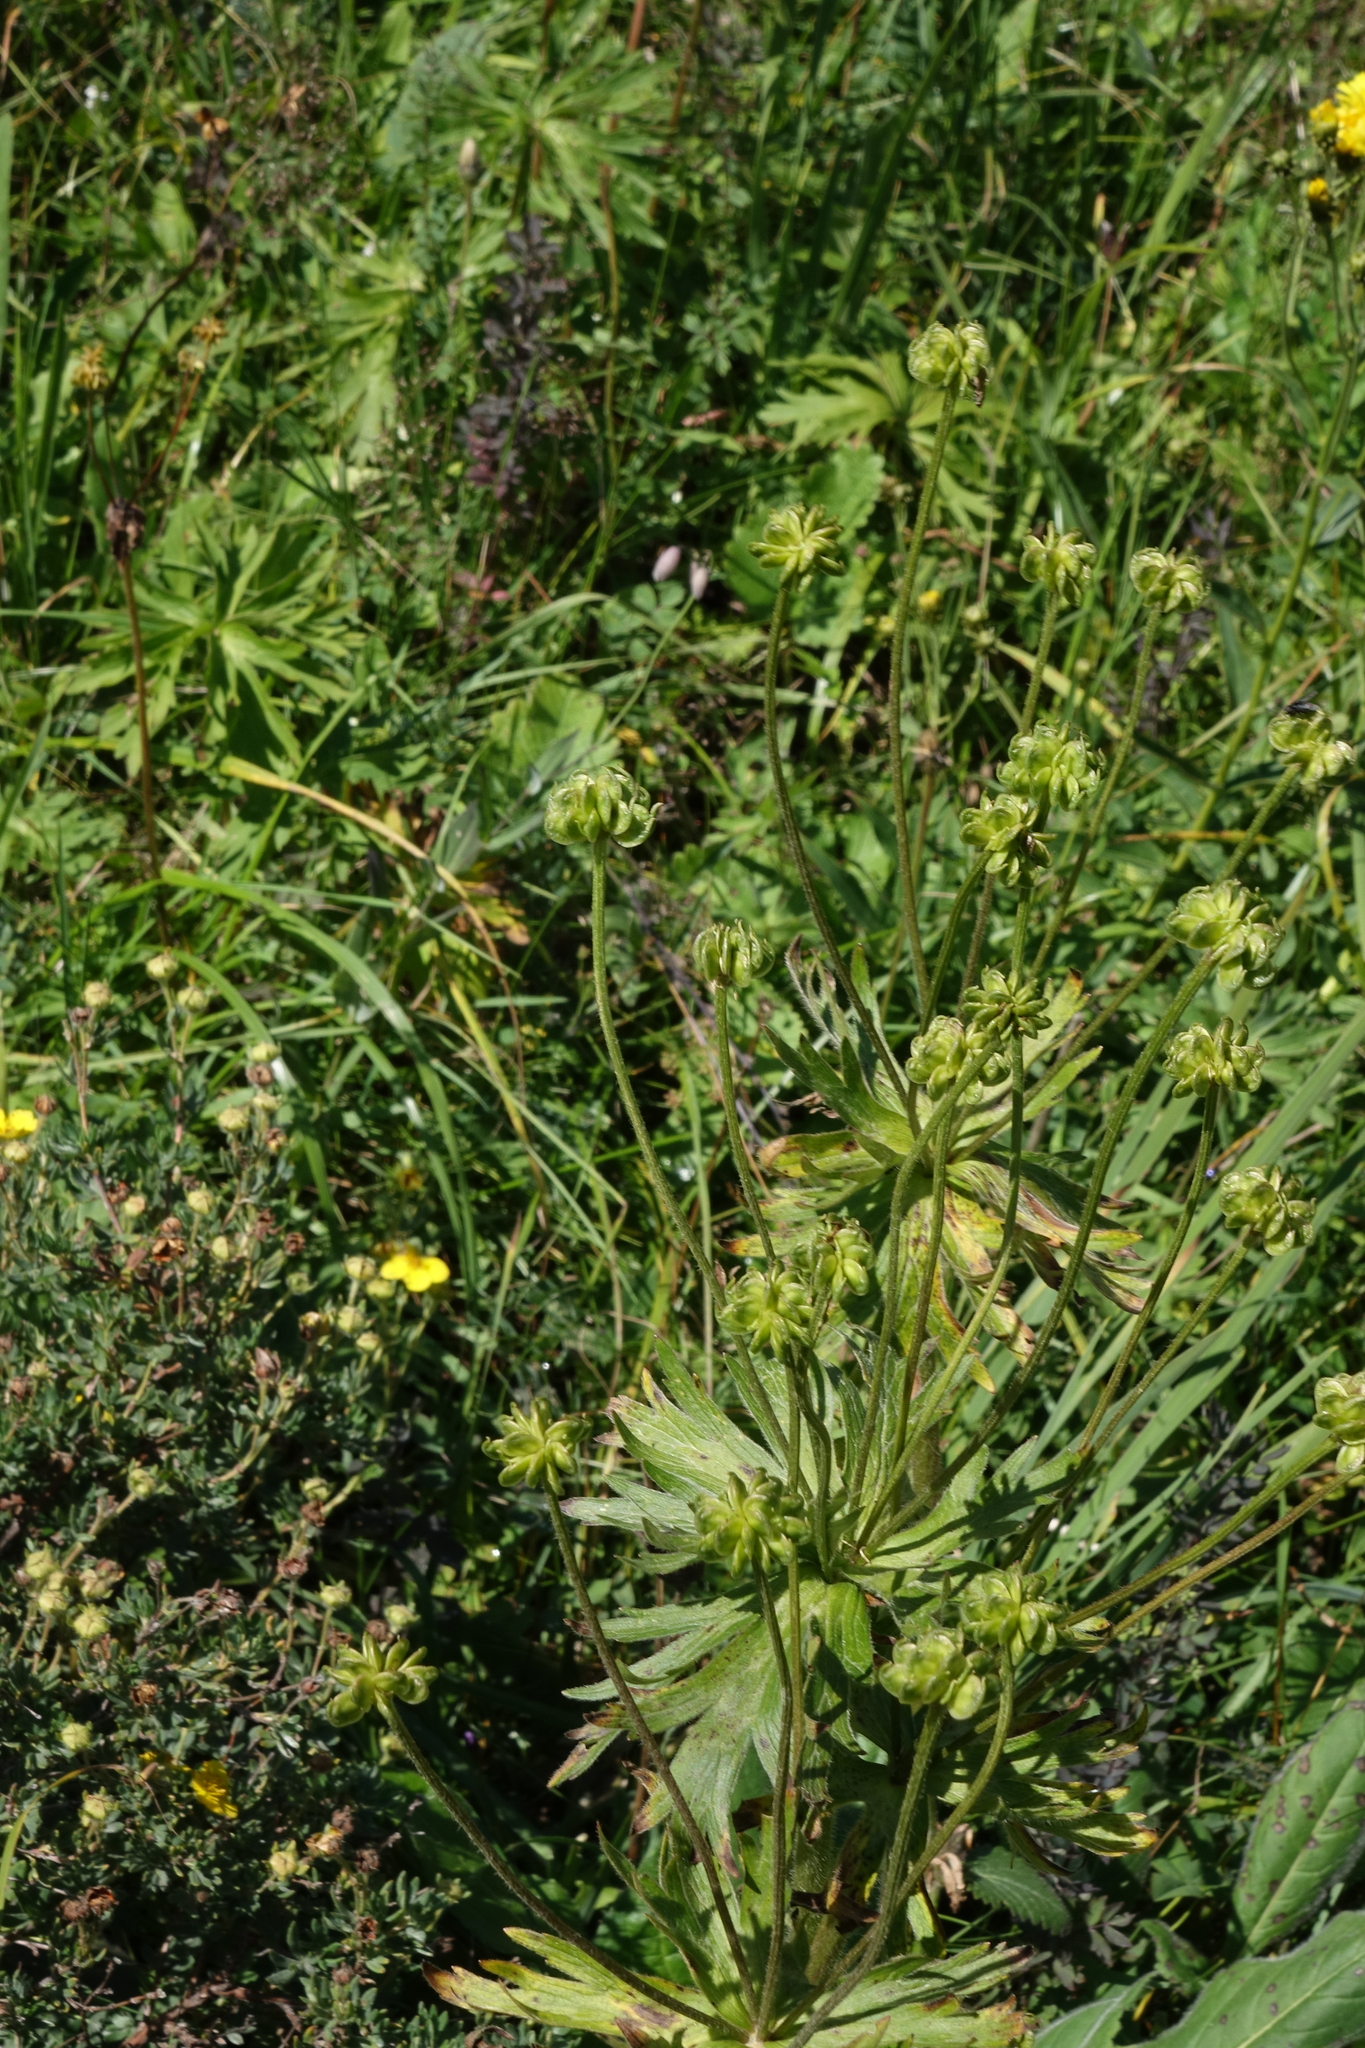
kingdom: Plantae
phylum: Tracheophyta
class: Magnoliopsida
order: Ranunculales
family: Ranunculaceae
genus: Anemonastrum
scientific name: Anemonastrum narcissiflorum
